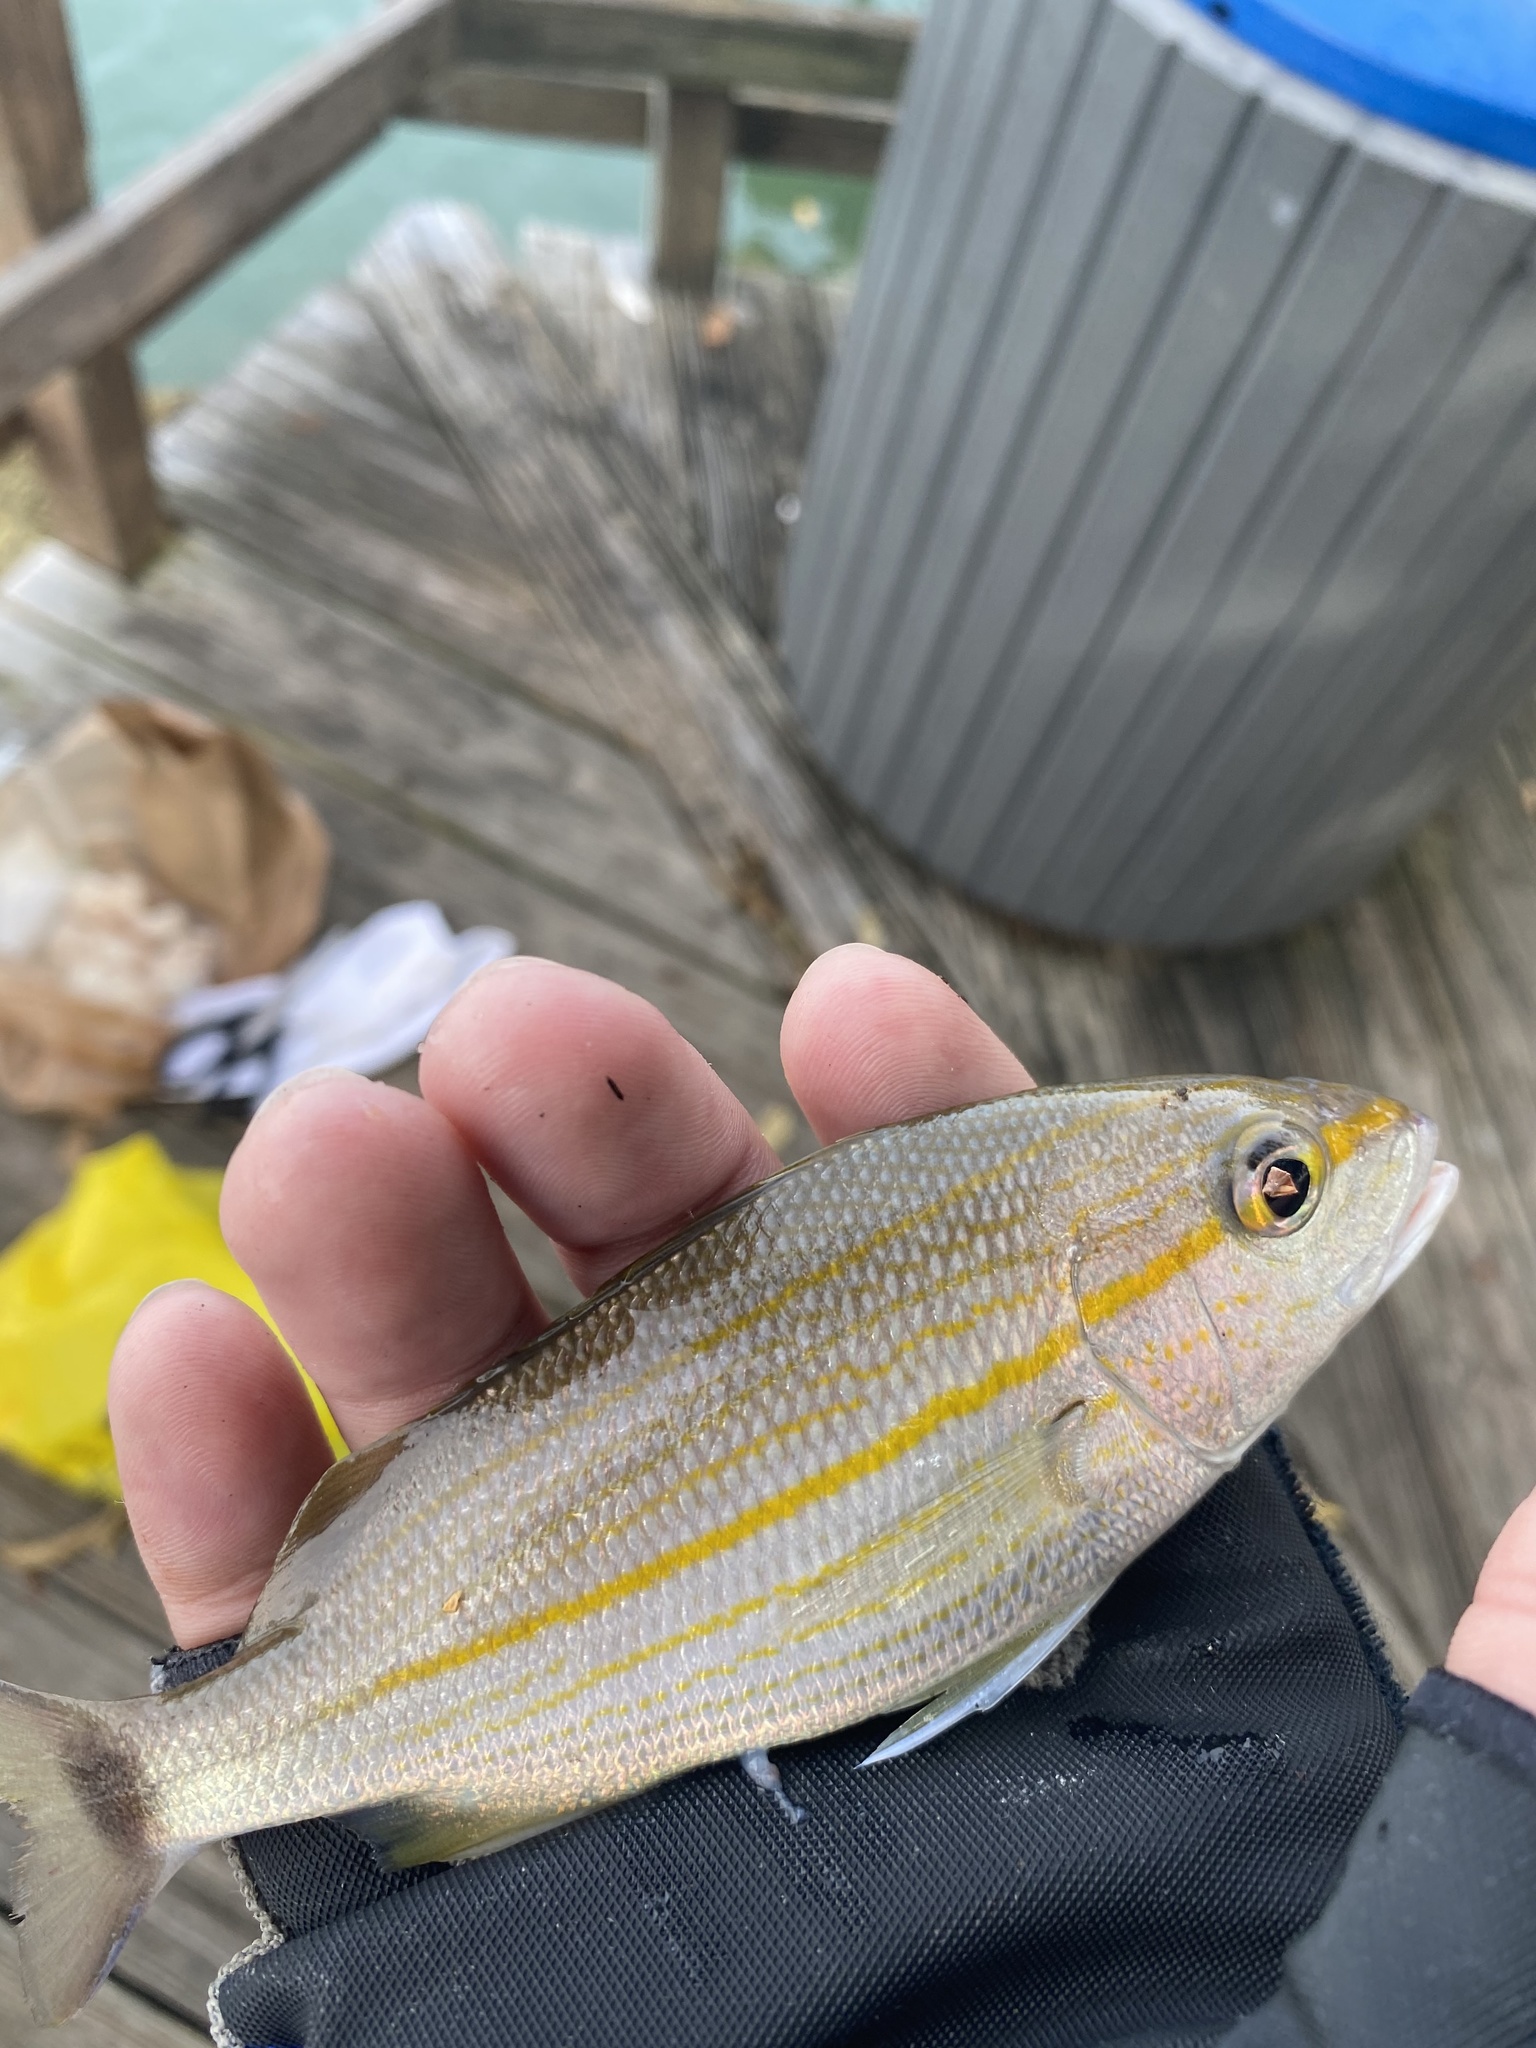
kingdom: Animalia
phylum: Chordata
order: Perciformes
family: Haemulidae
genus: Haemulon
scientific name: Haemulon aurolineatum
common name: Tomtate
